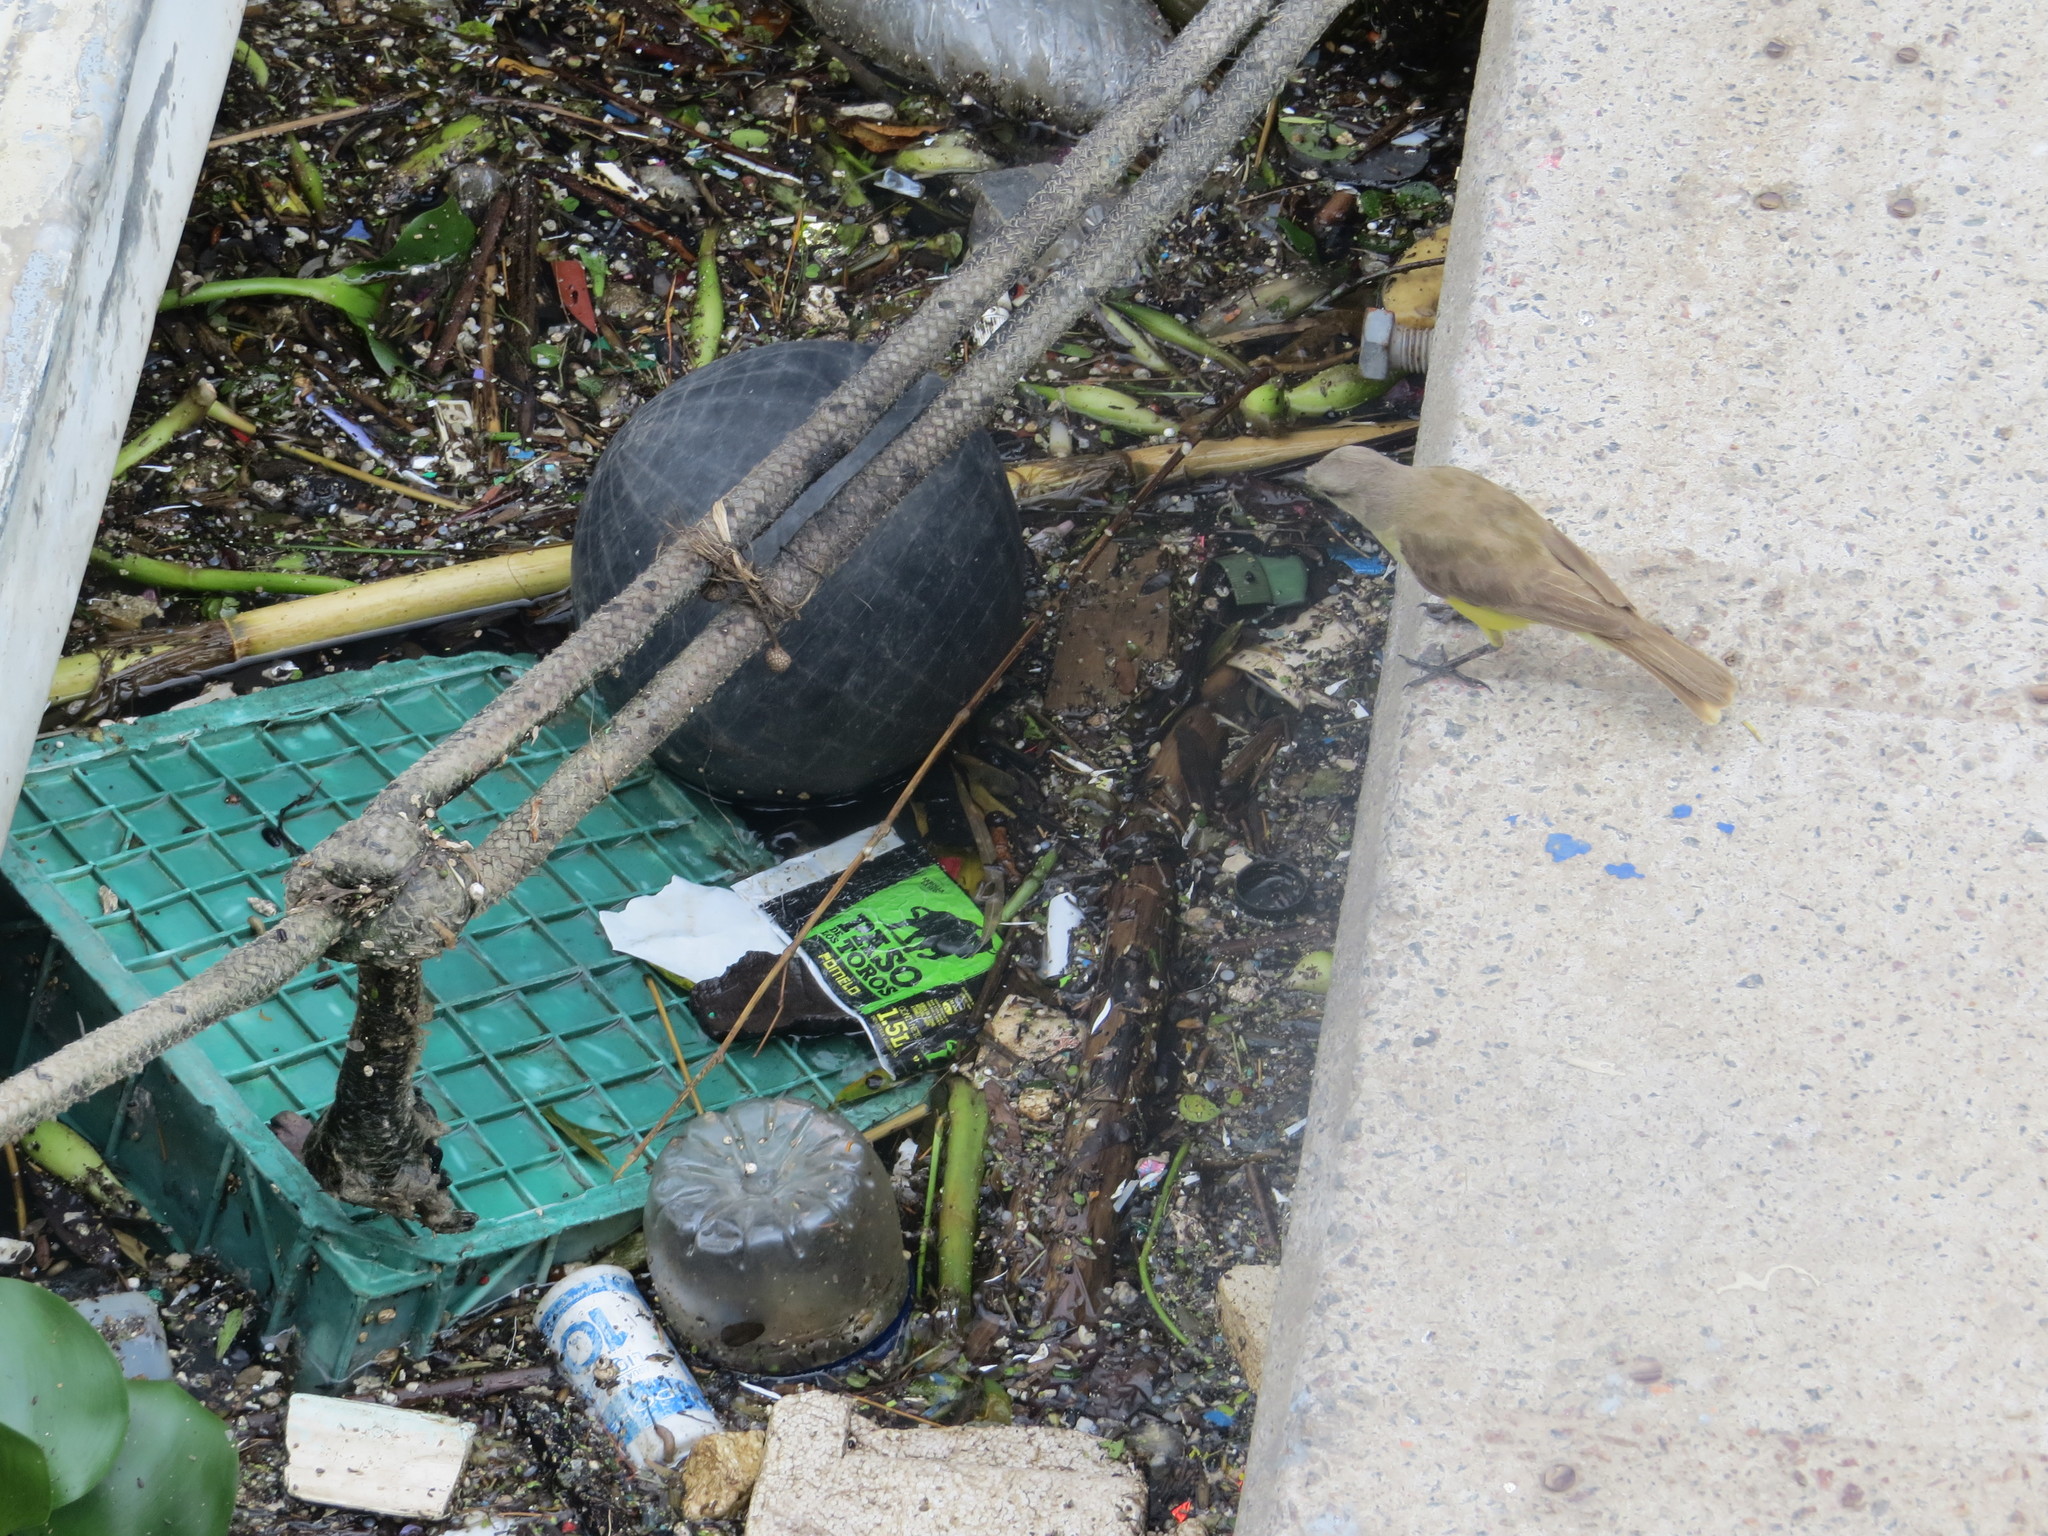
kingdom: Animalia
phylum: Chordata
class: Aves
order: Passeriformes
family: Tyrannidae
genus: Machetornis
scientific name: Machetornis rixosa
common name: Cattle tyrant
